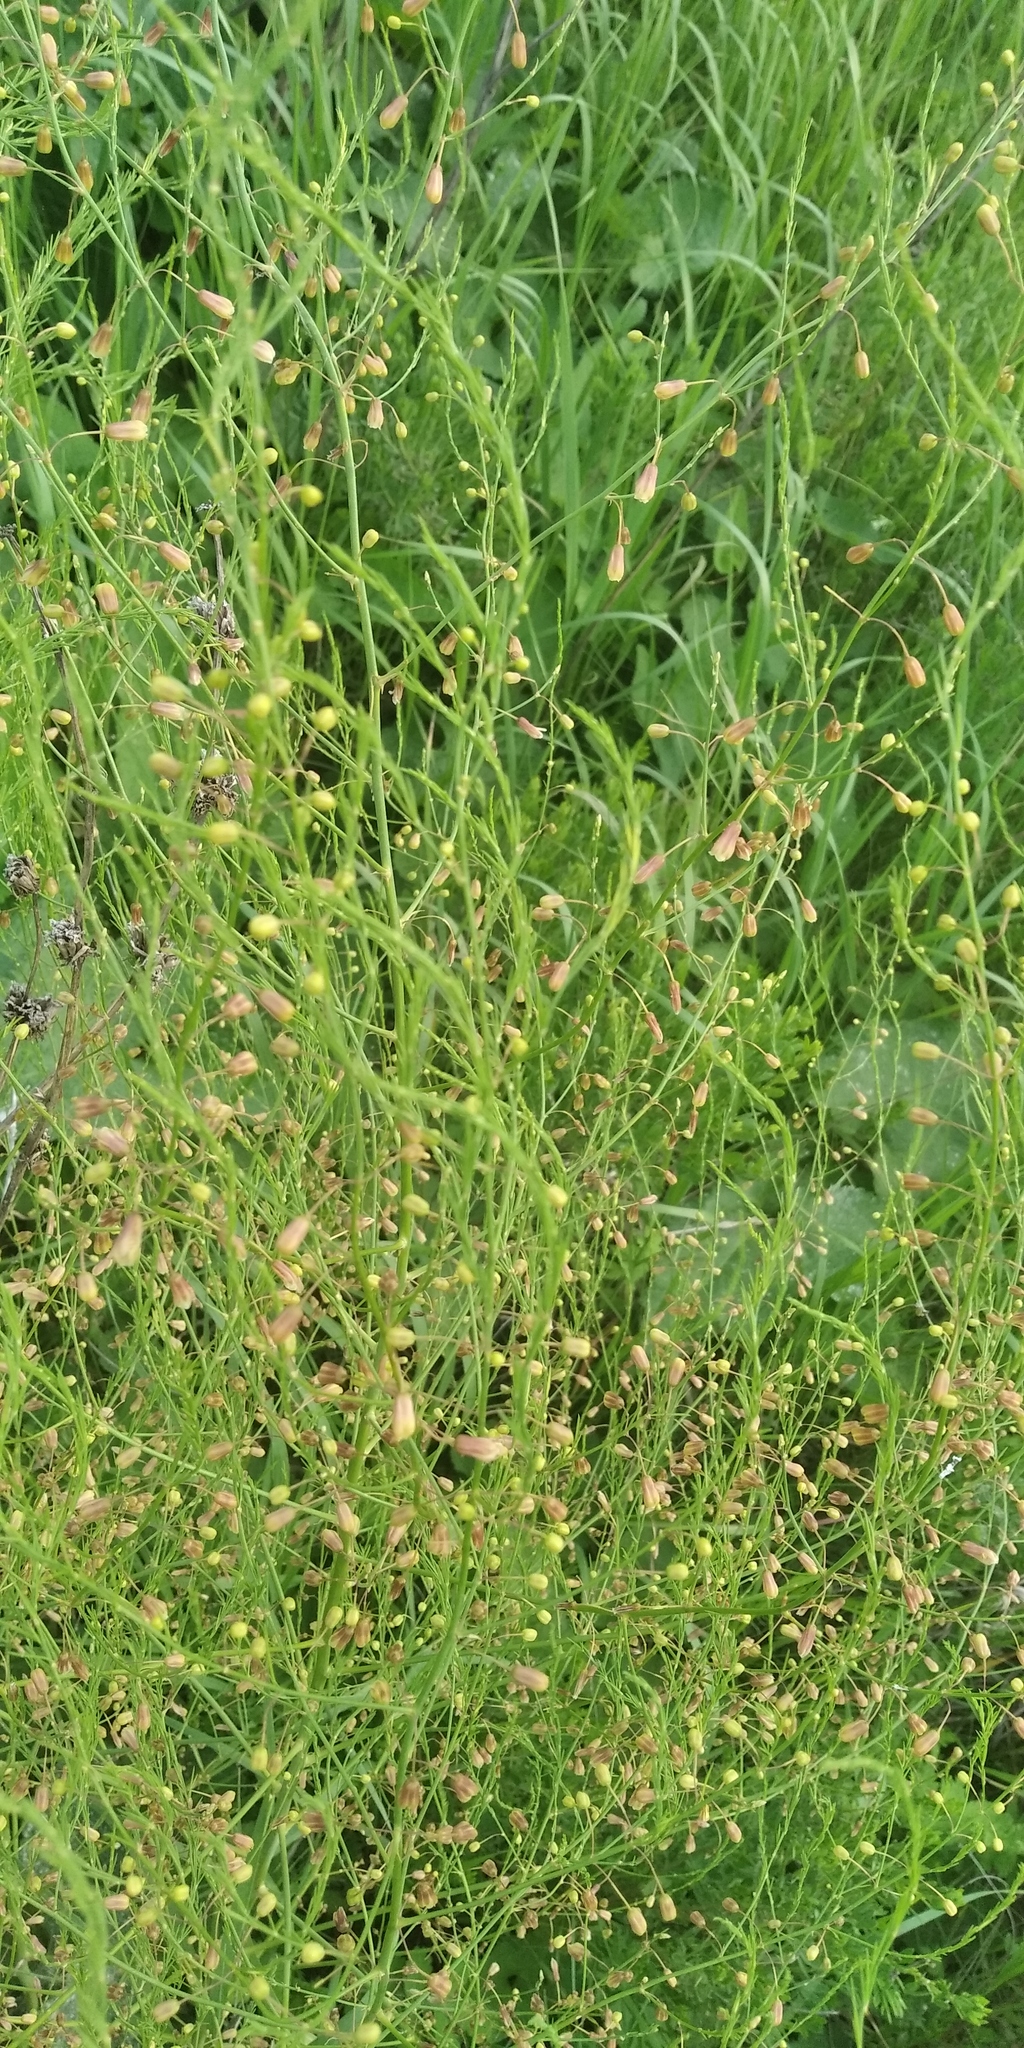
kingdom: Plantae
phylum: Tracheophyta
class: Liliopsida
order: Asparagales
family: Asparagaceae
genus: Asparagus
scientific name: Asparagus officinalis
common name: Garden asparagus
